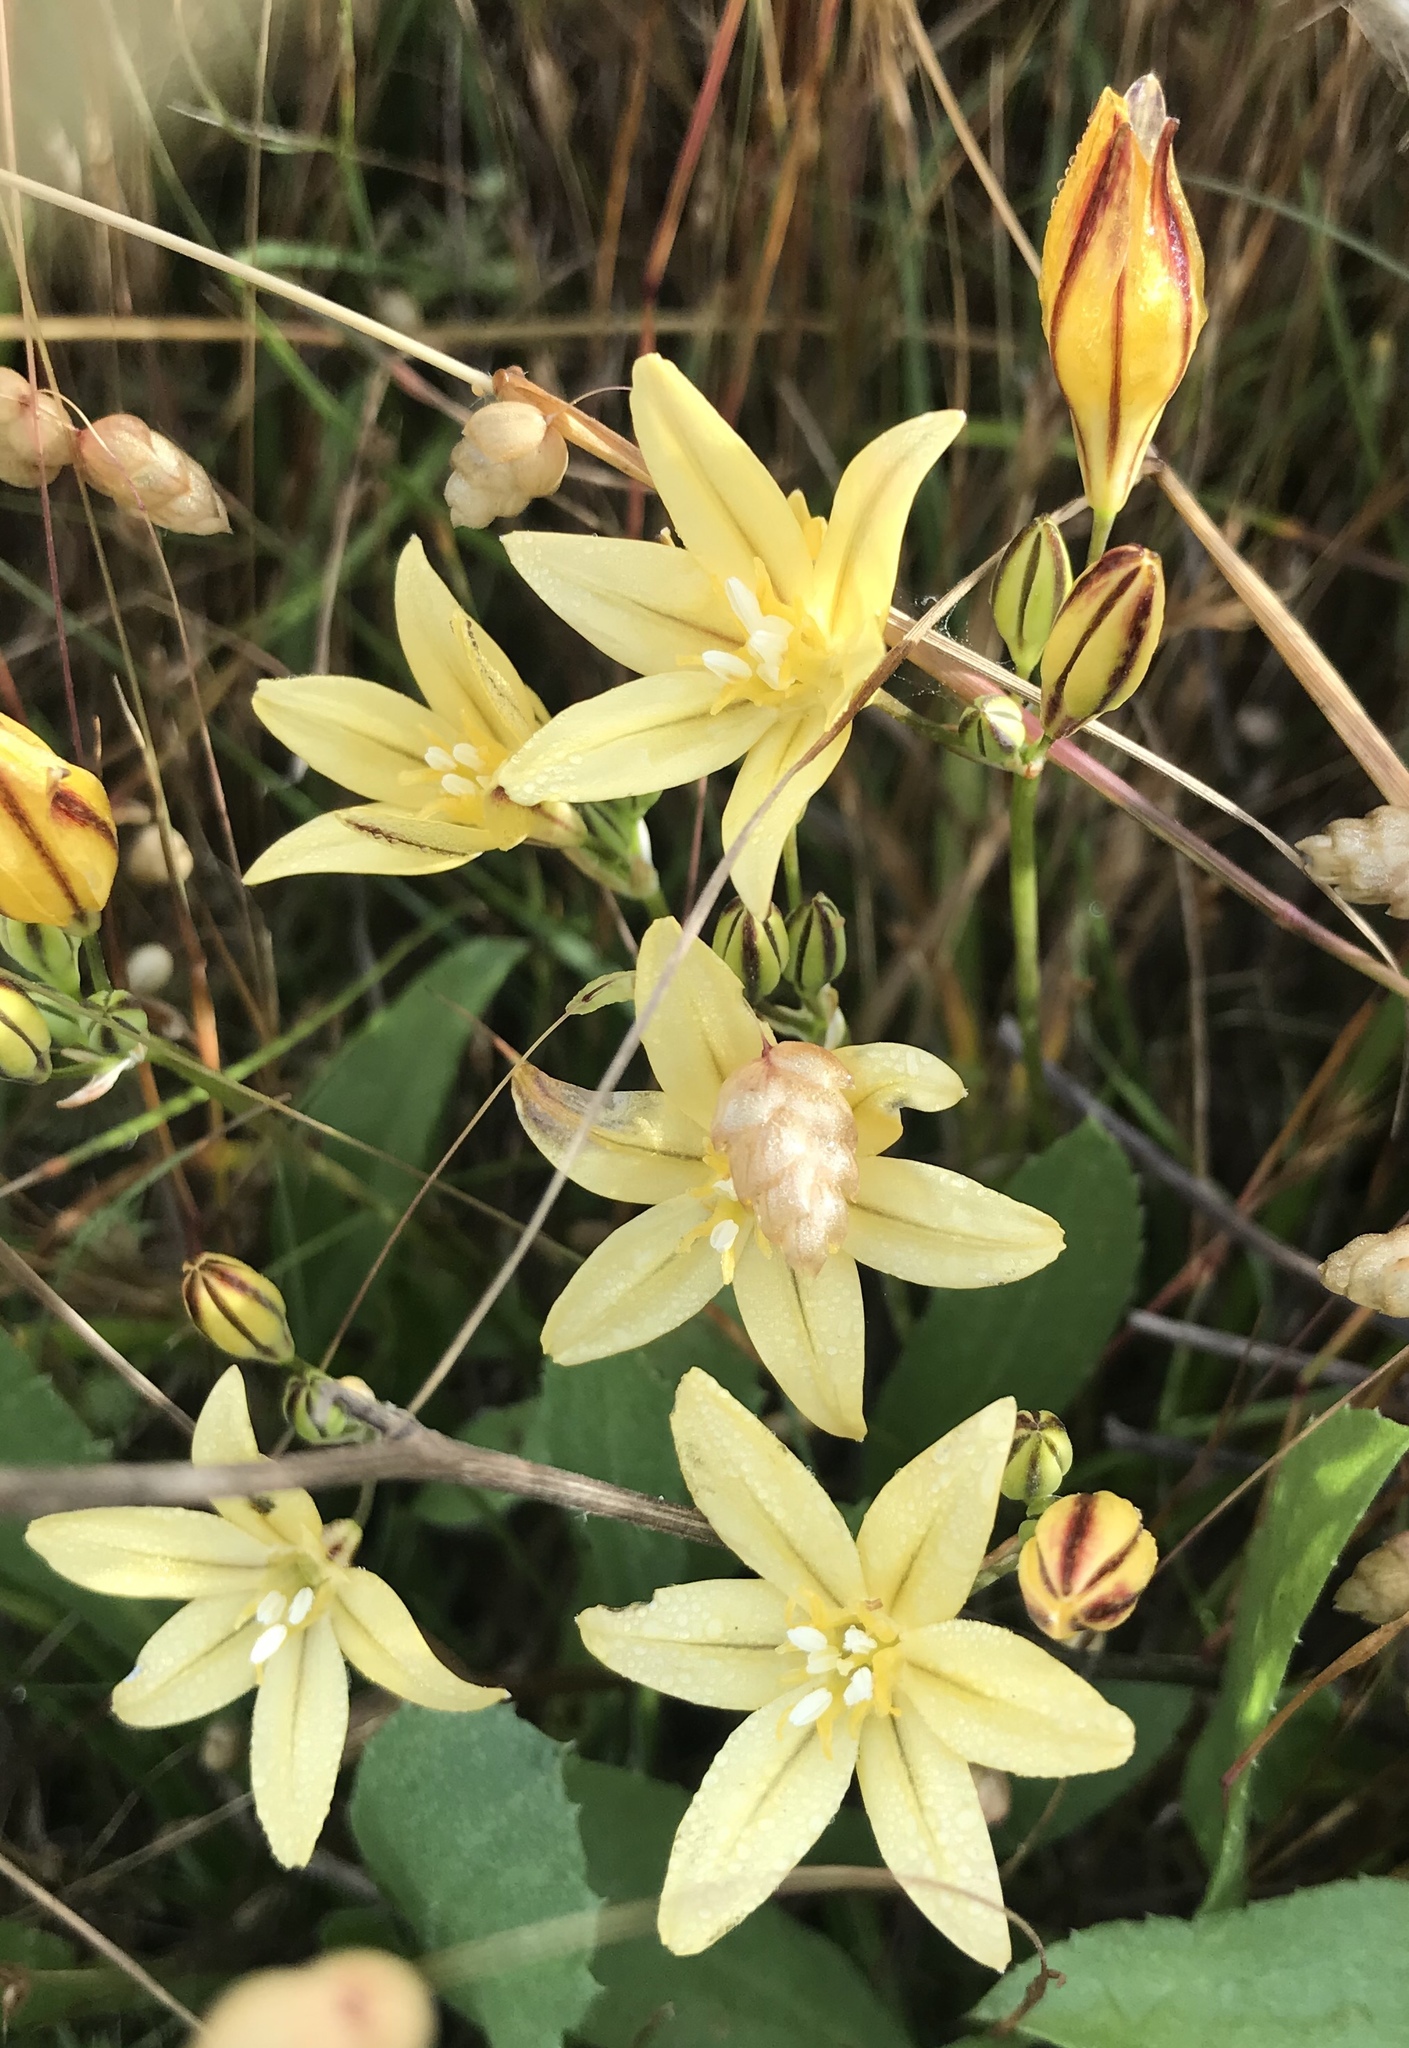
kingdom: Plantae
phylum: Tracheophyta
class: Liliopsida
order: Asparagales
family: Asparagaceae
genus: Triteleia
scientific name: Triteleia ixioides
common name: Yellow-brodiaea
